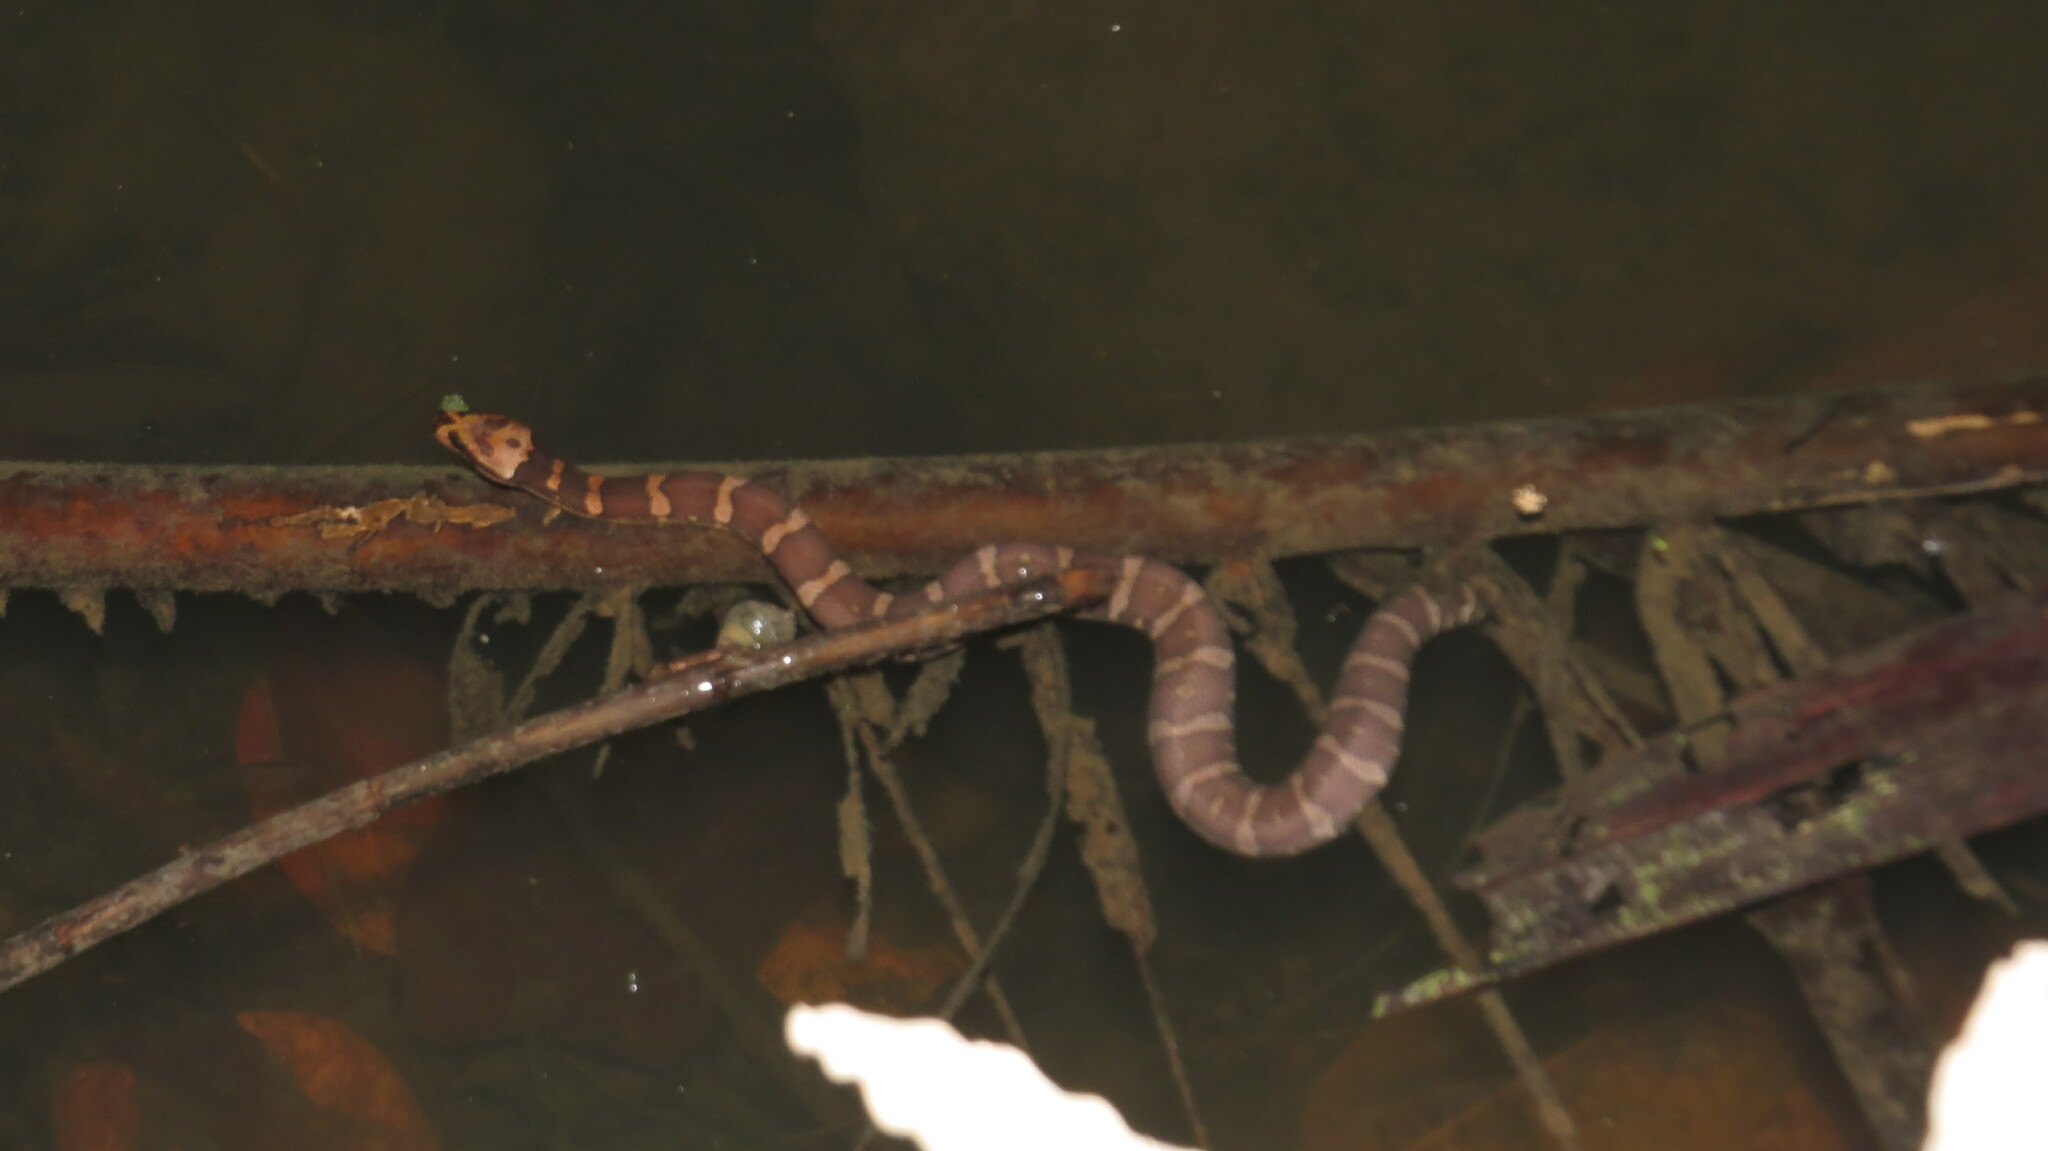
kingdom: Animalia
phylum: Chordata
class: Squamata
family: Homalopsidae
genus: Homalopsis
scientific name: Homalopsis mereljcoxi
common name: Jack’s water snake
